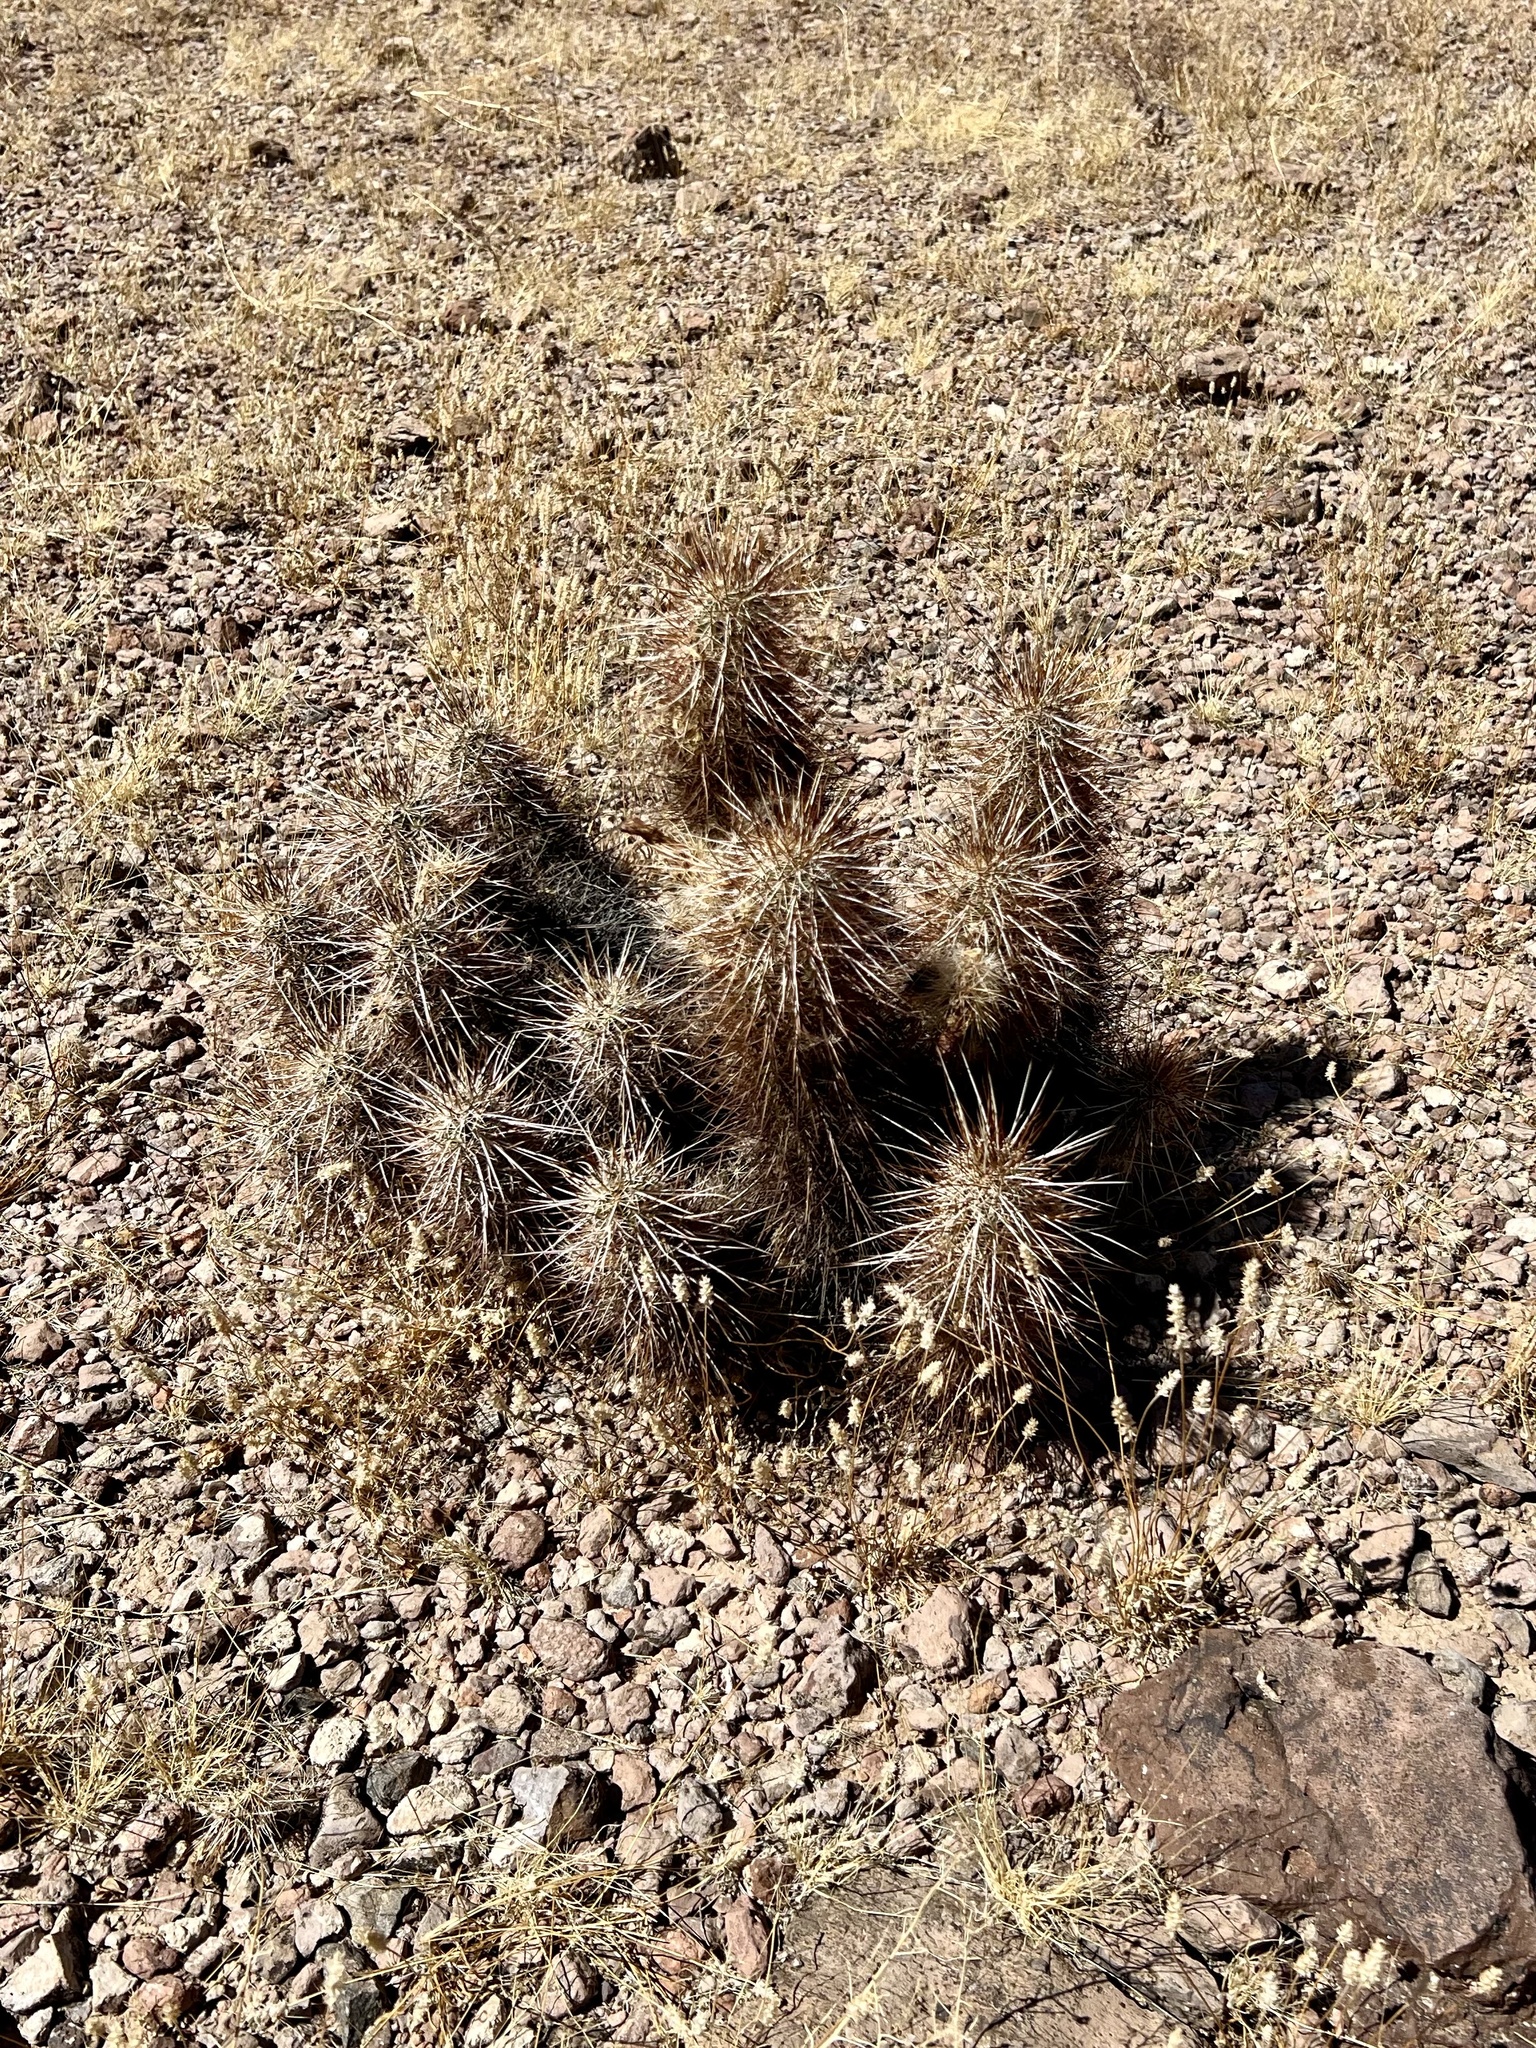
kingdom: Plantae
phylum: Tracheophyta
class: Magnoliopsida
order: Caryophyllales
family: Cactaceae
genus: Echinocereus
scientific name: Echinocereus engelmannii
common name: Engelmann's hedgehog cactus
